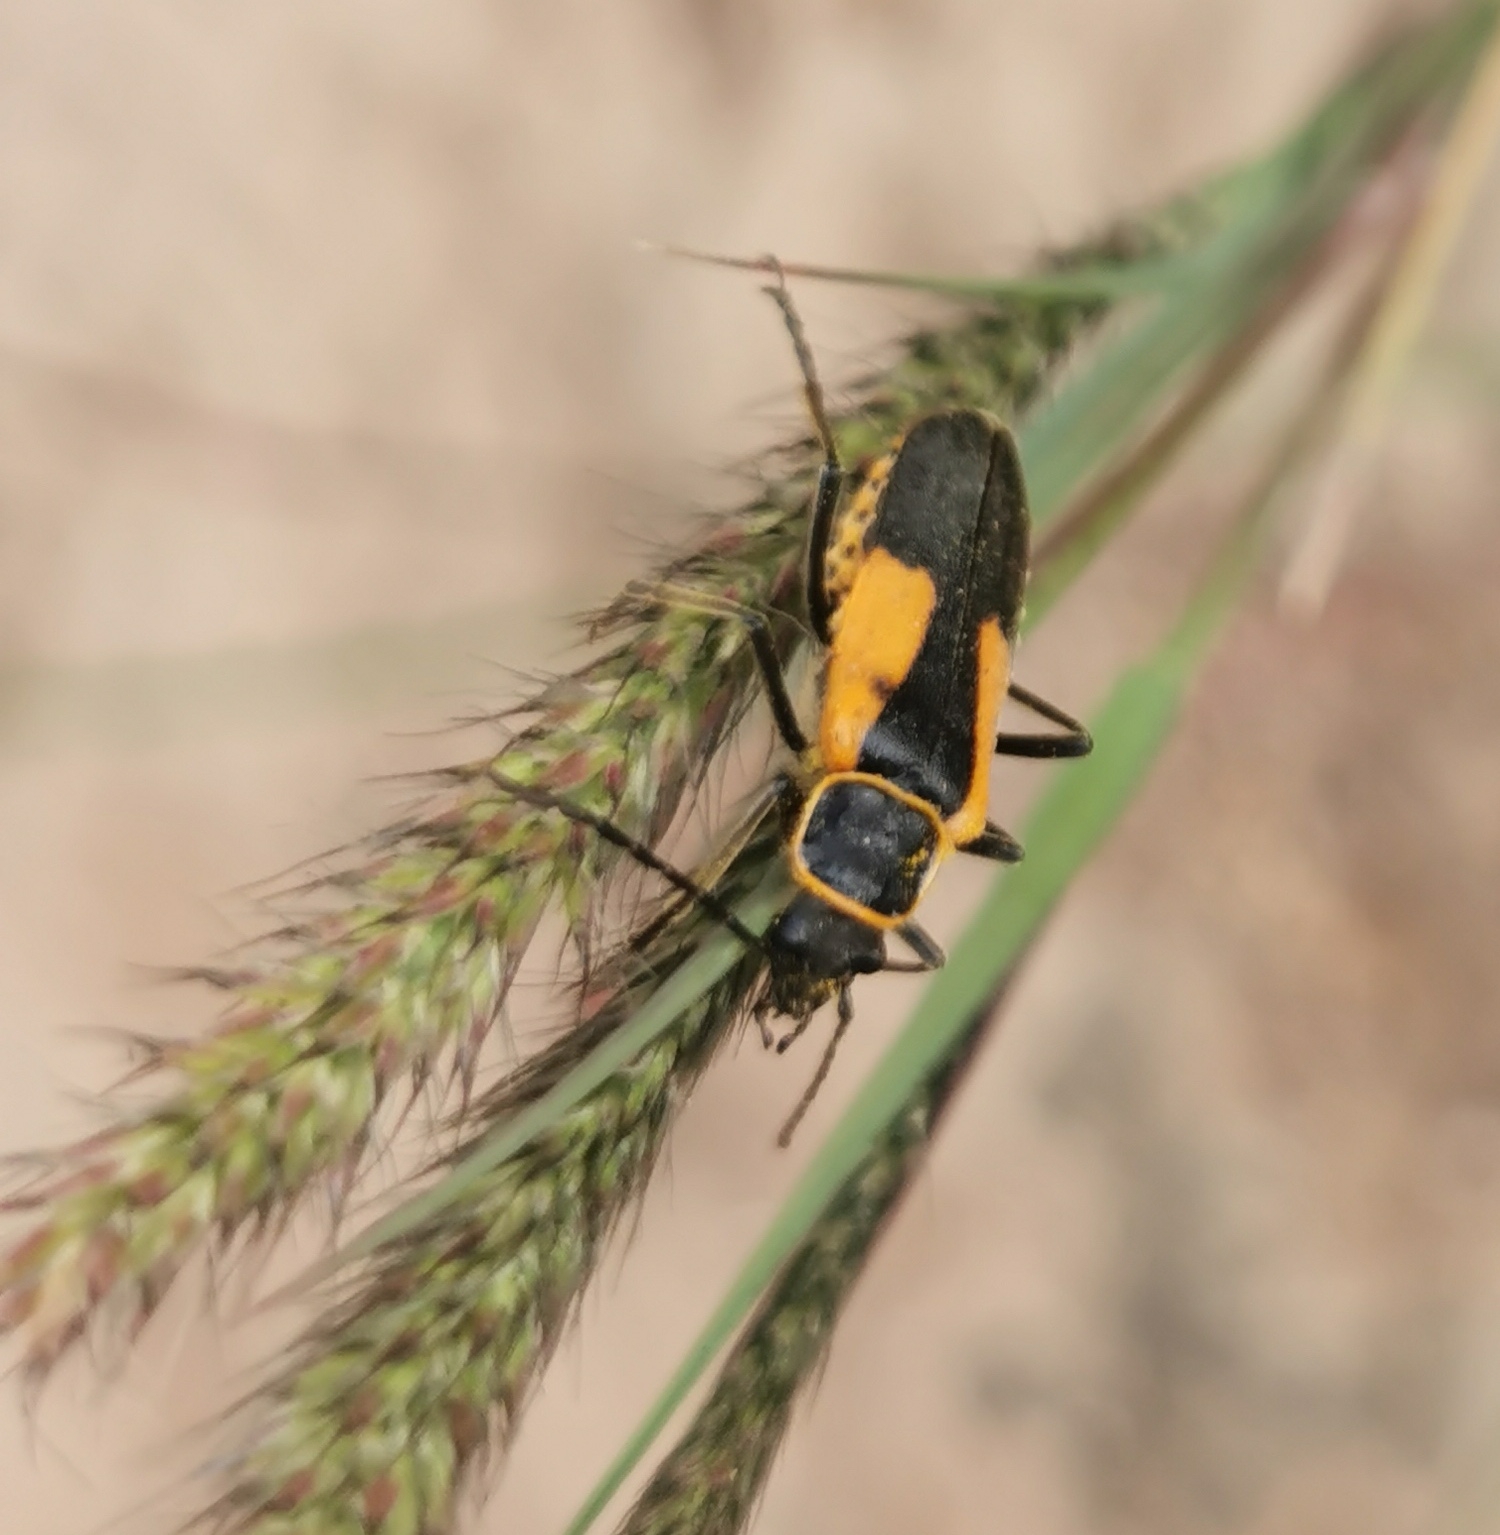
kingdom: Animalia
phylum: Arthropoda
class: Insecta
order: Coleoptera
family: Cantharidae
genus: Chauliognathus
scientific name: Chauliognathus limbicollis
